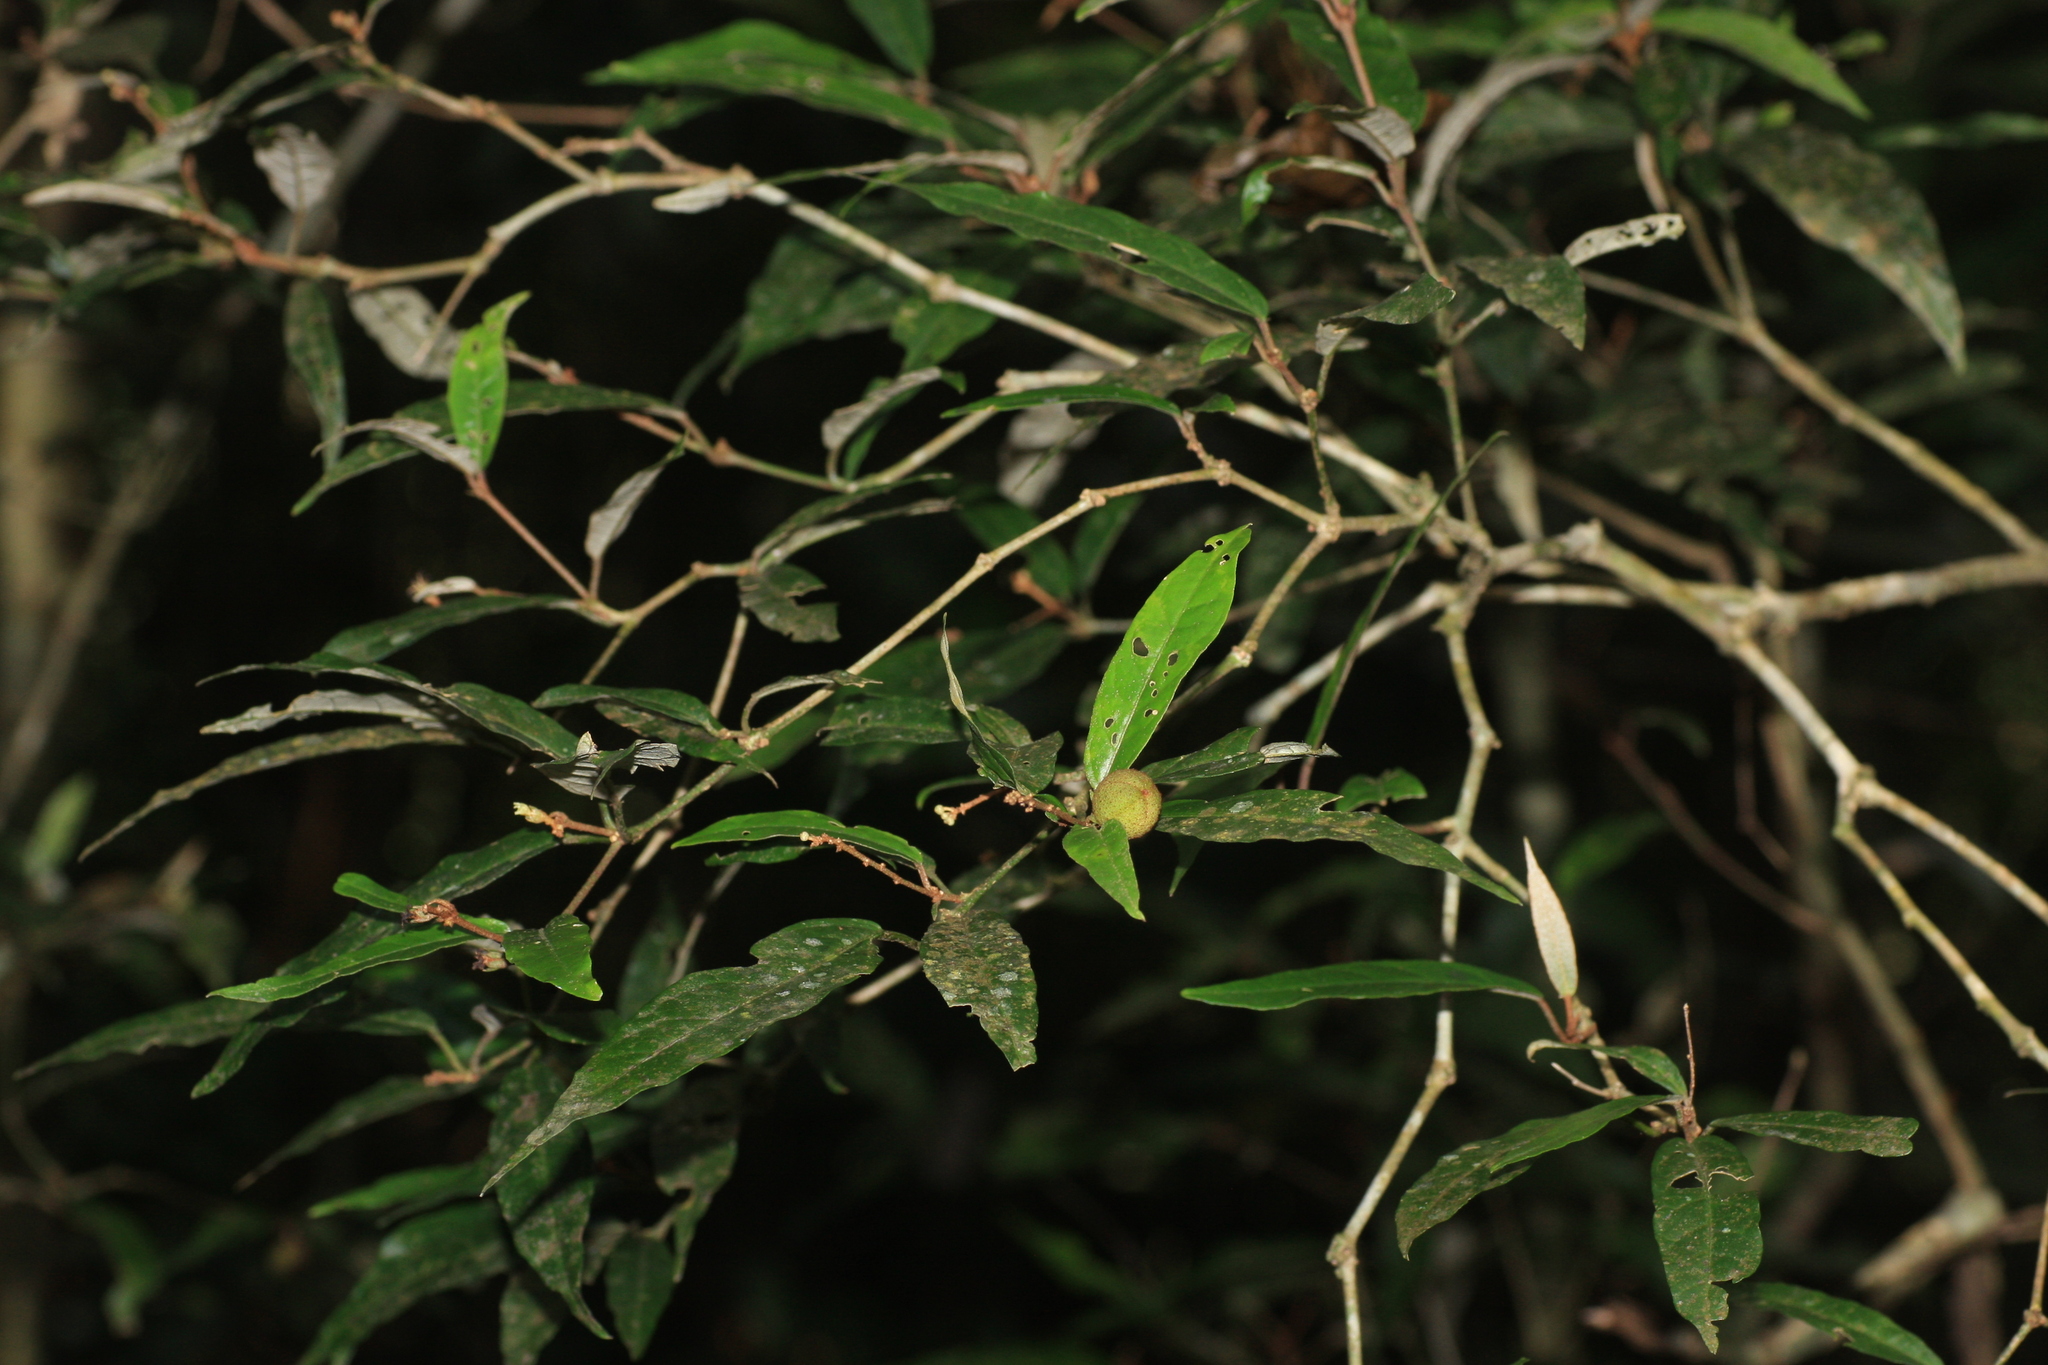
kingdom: Plantae
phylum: Tracheophyta
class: Magnoliopsida
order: Malpighiales
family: Euphorbiaceae
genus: Croton
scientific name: Croton zeylanicus
